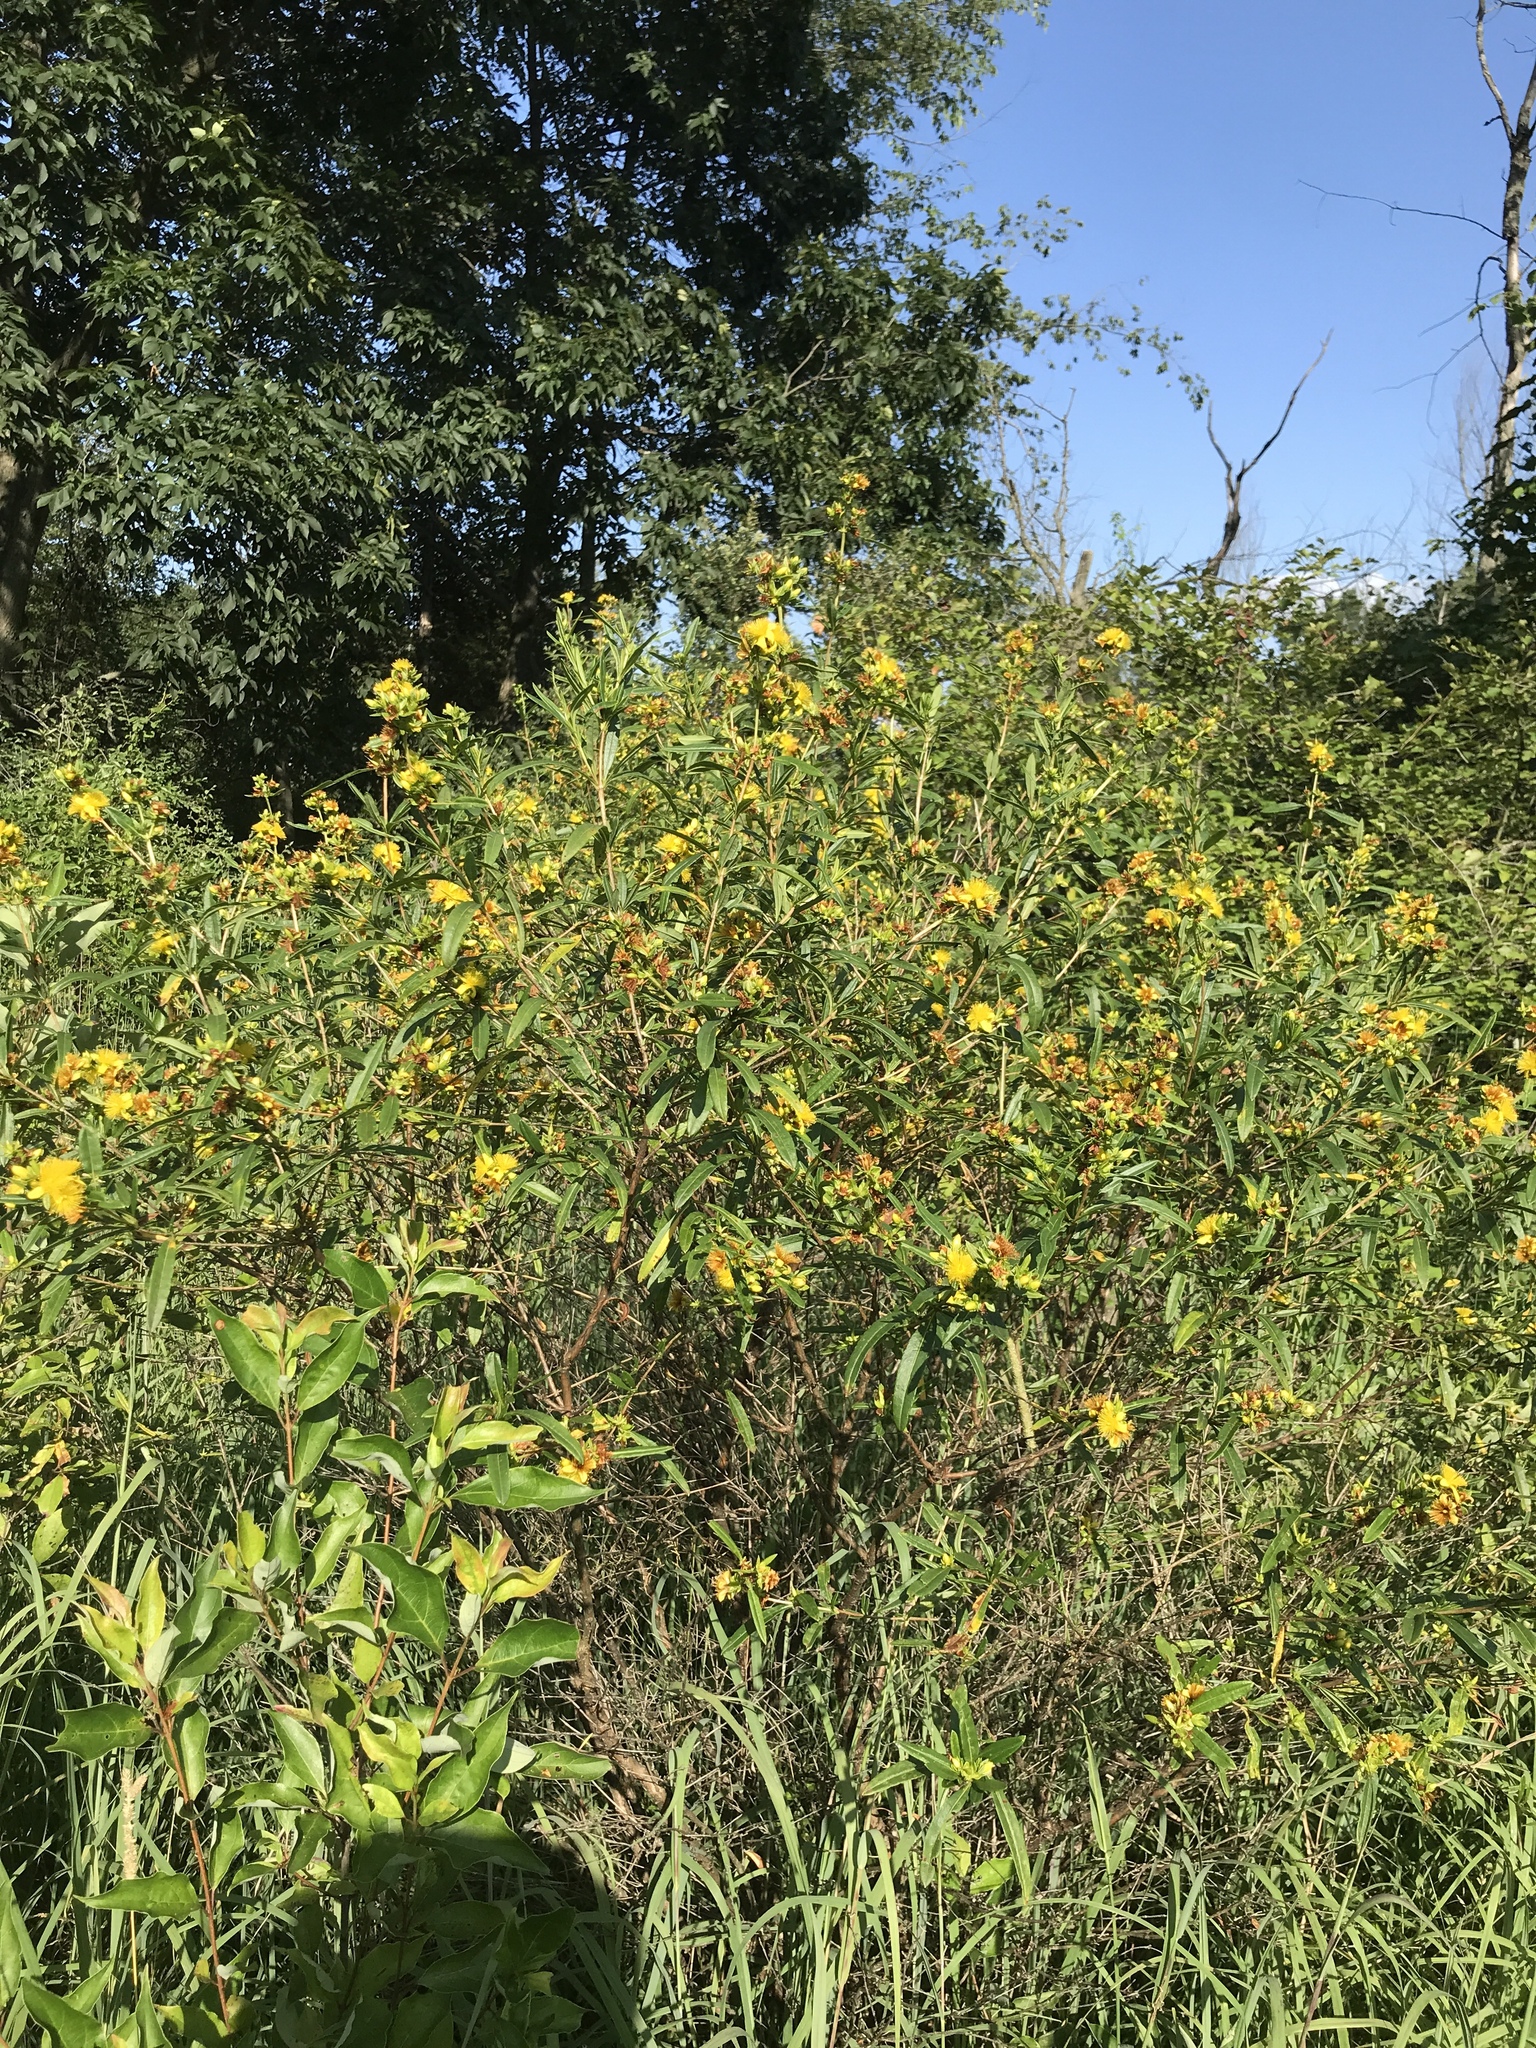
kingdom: Plantae
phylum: Tracheophyta
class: Magnoliopsida
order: Malpighiales
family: Hypericaceae
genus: Hypericum
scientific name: Hypericum prolificum
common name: Shrubby st. john's-wort
